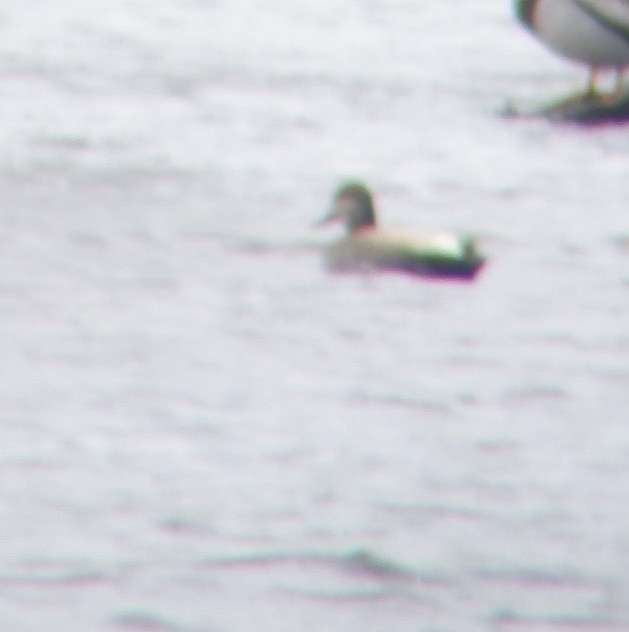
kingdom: Animalia
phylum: Chordata
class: Aves
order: Anseriformes
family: Anatidae
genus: Mareca
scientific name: Mareca strepera
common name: Gadwall
